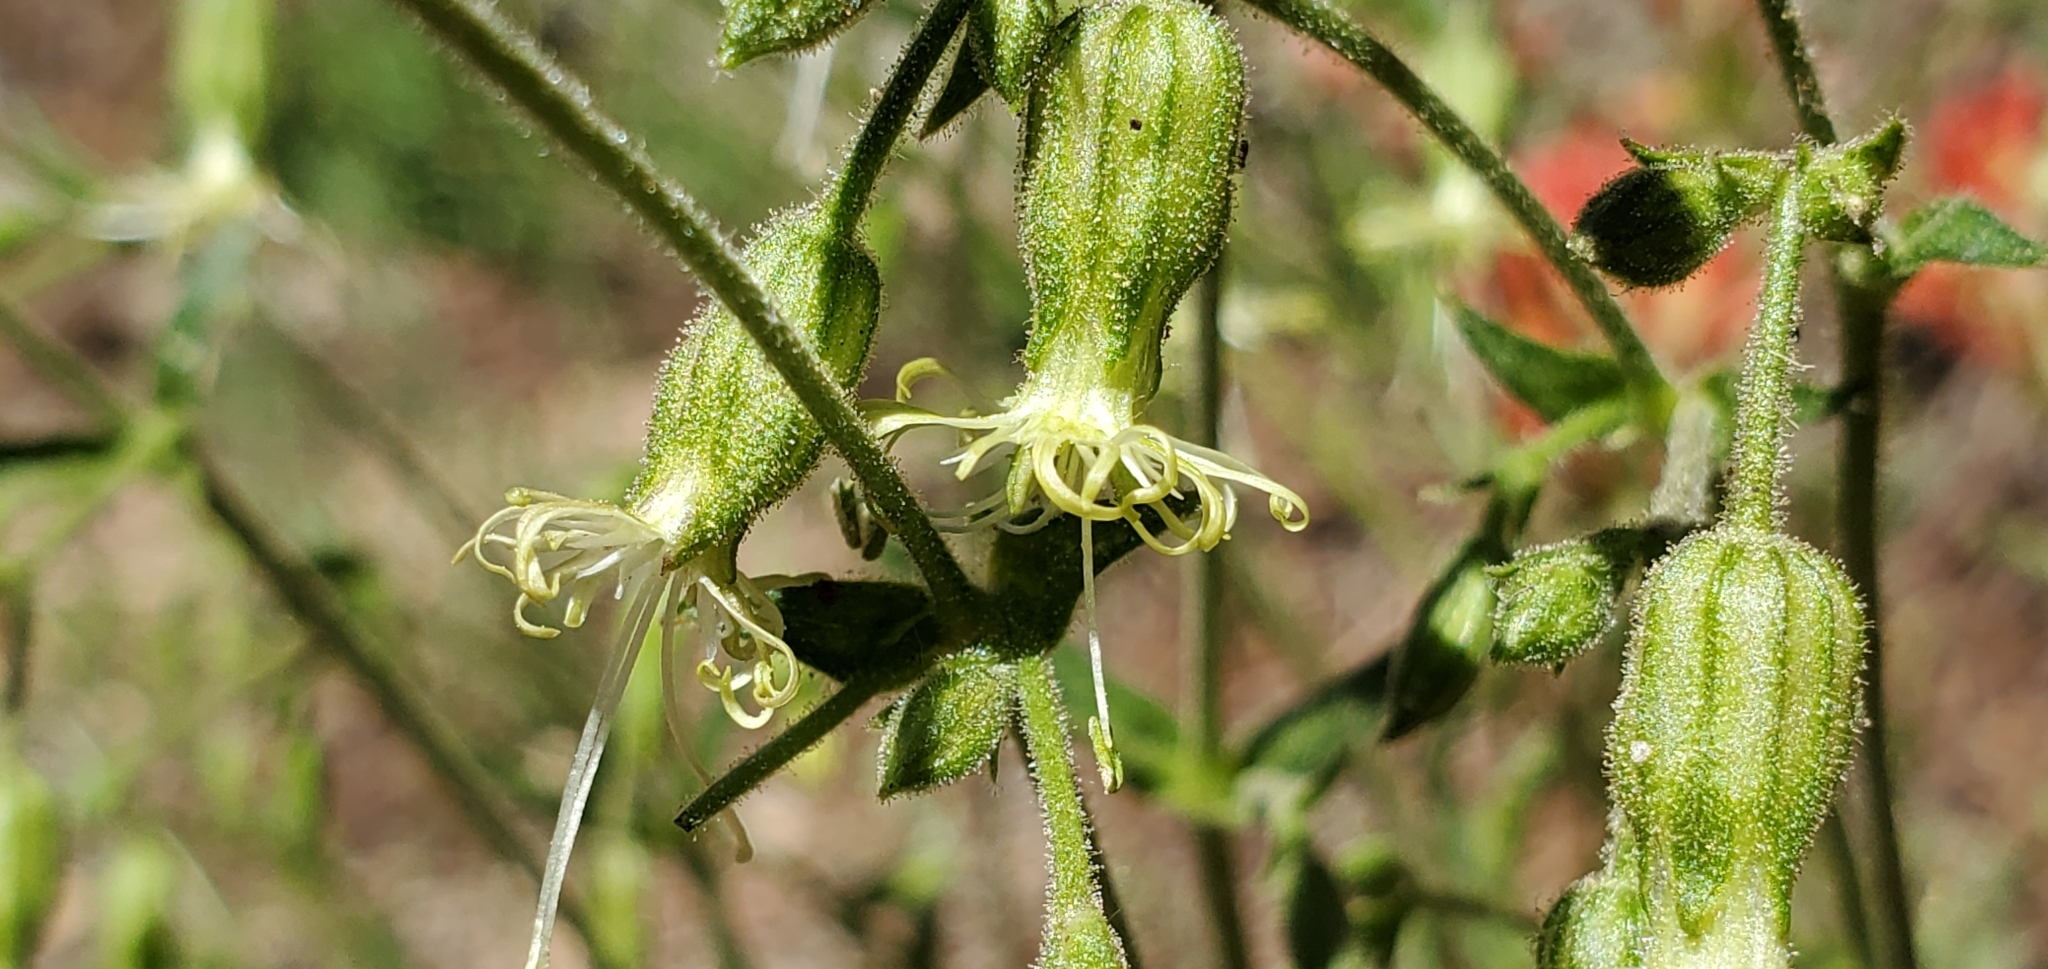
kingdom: Plantae
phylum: Tracheophyta
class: Magnoliopsida
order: Caryophyllales
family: Caryophyllaceae
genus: Silene
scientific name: Silene lemmonii
